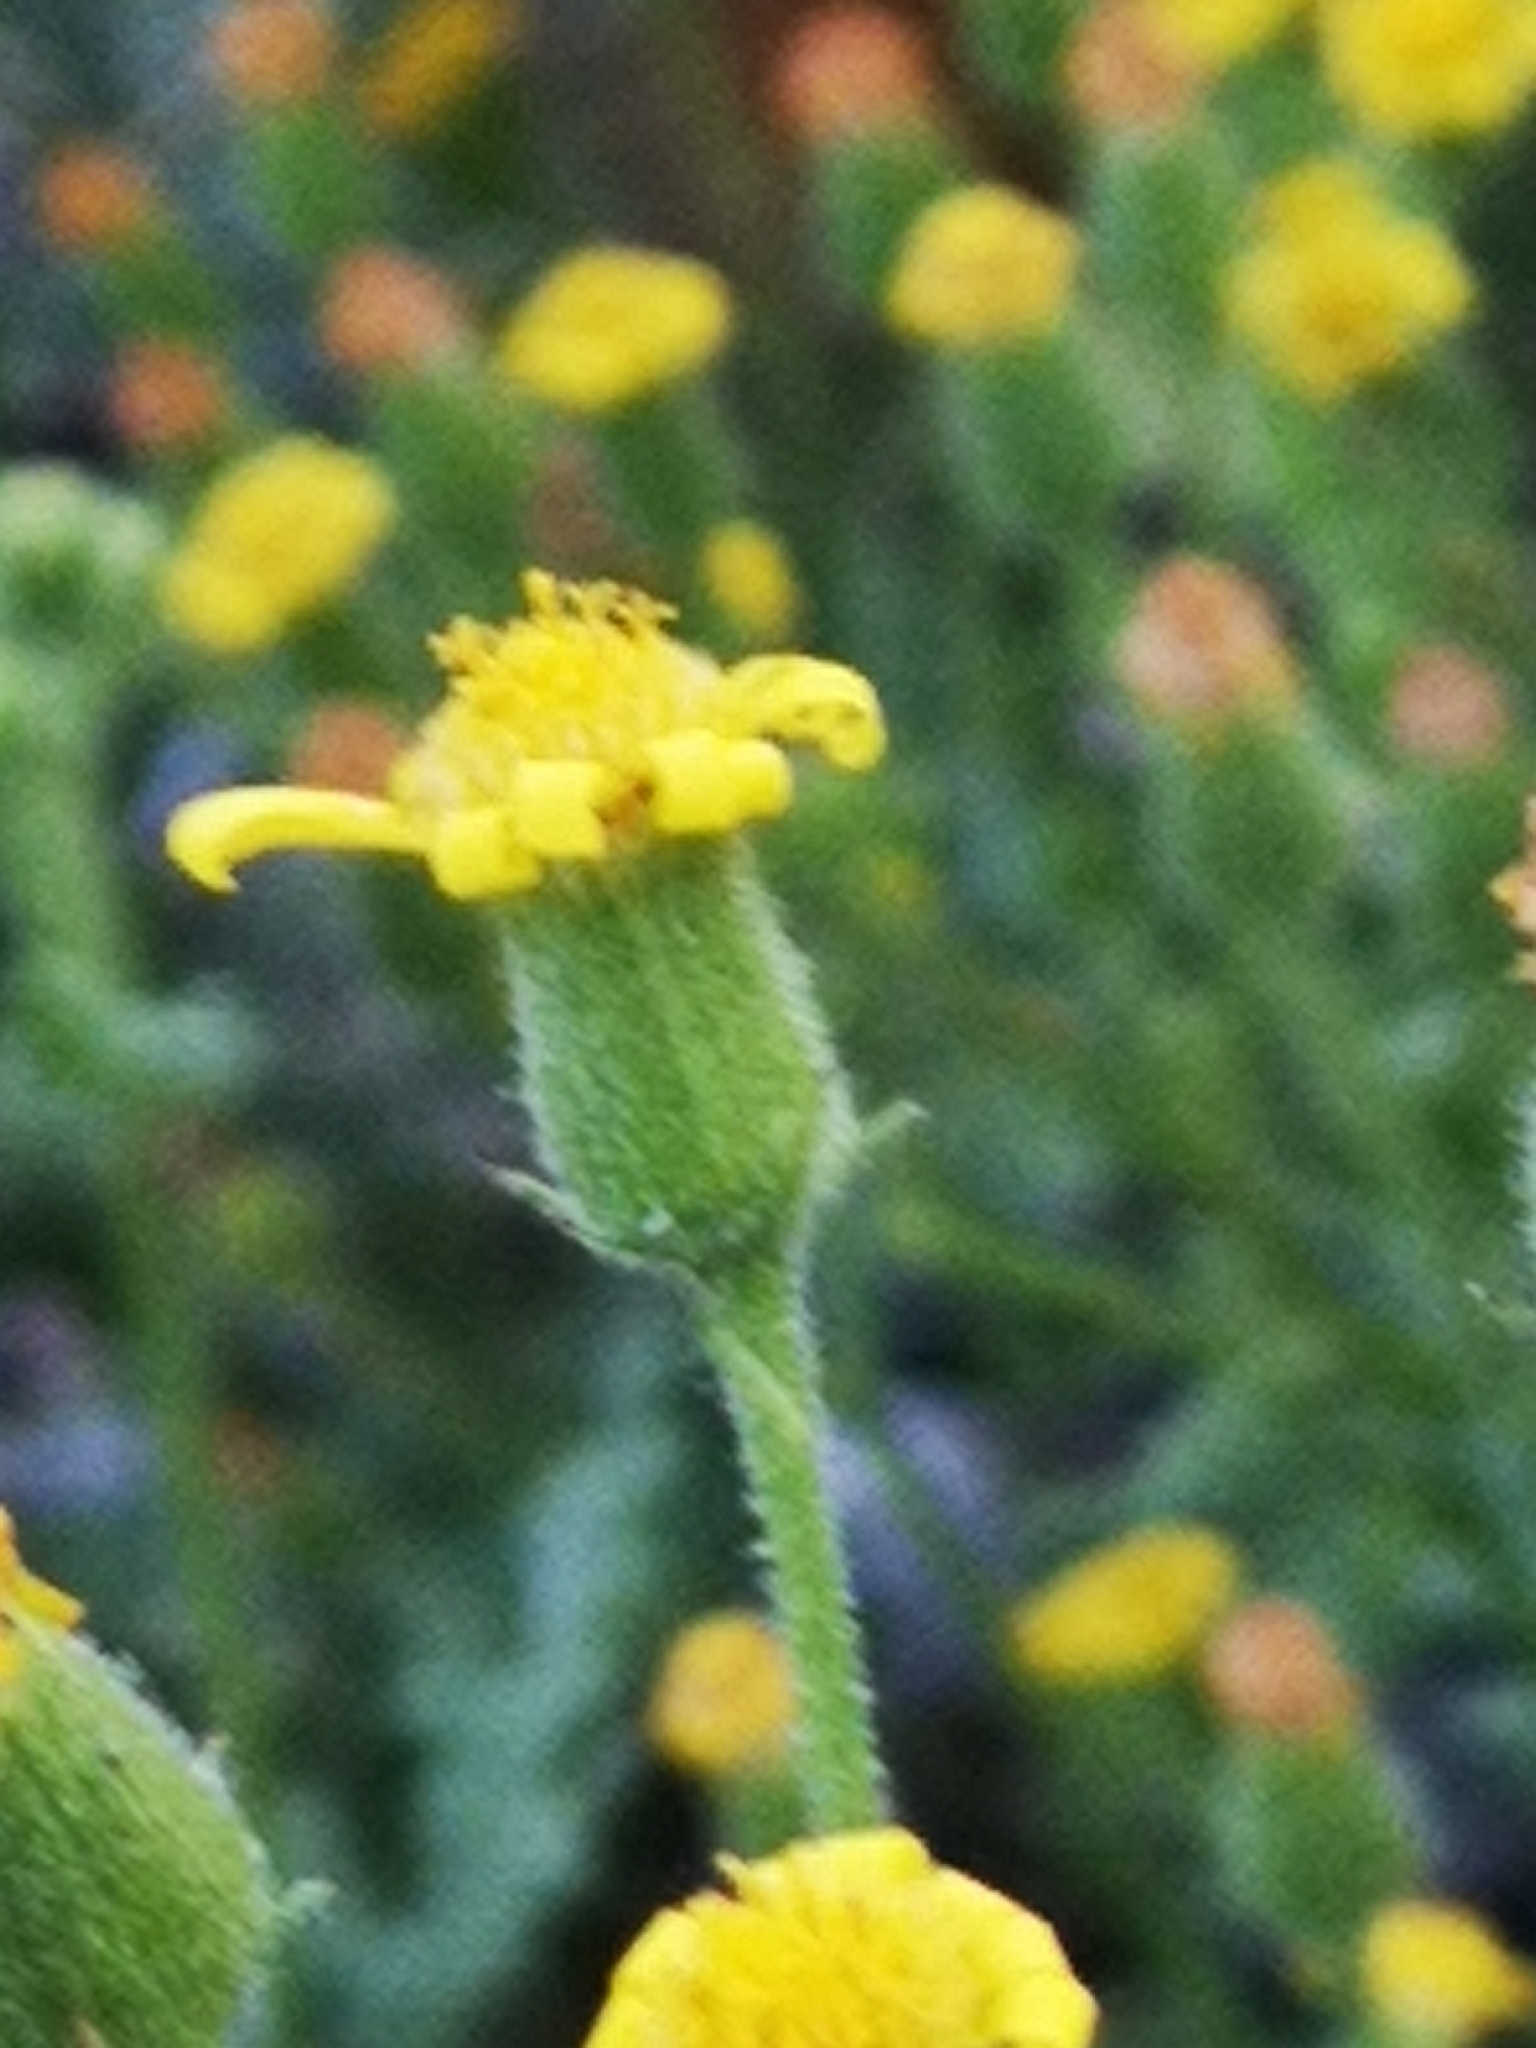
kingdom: Plantae
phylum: Tracheophyta
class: Magnoliopsida
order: Asterales
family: Asteraceae
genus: Senecio
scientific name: Senecio viscosus
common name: Sticky groundsel
